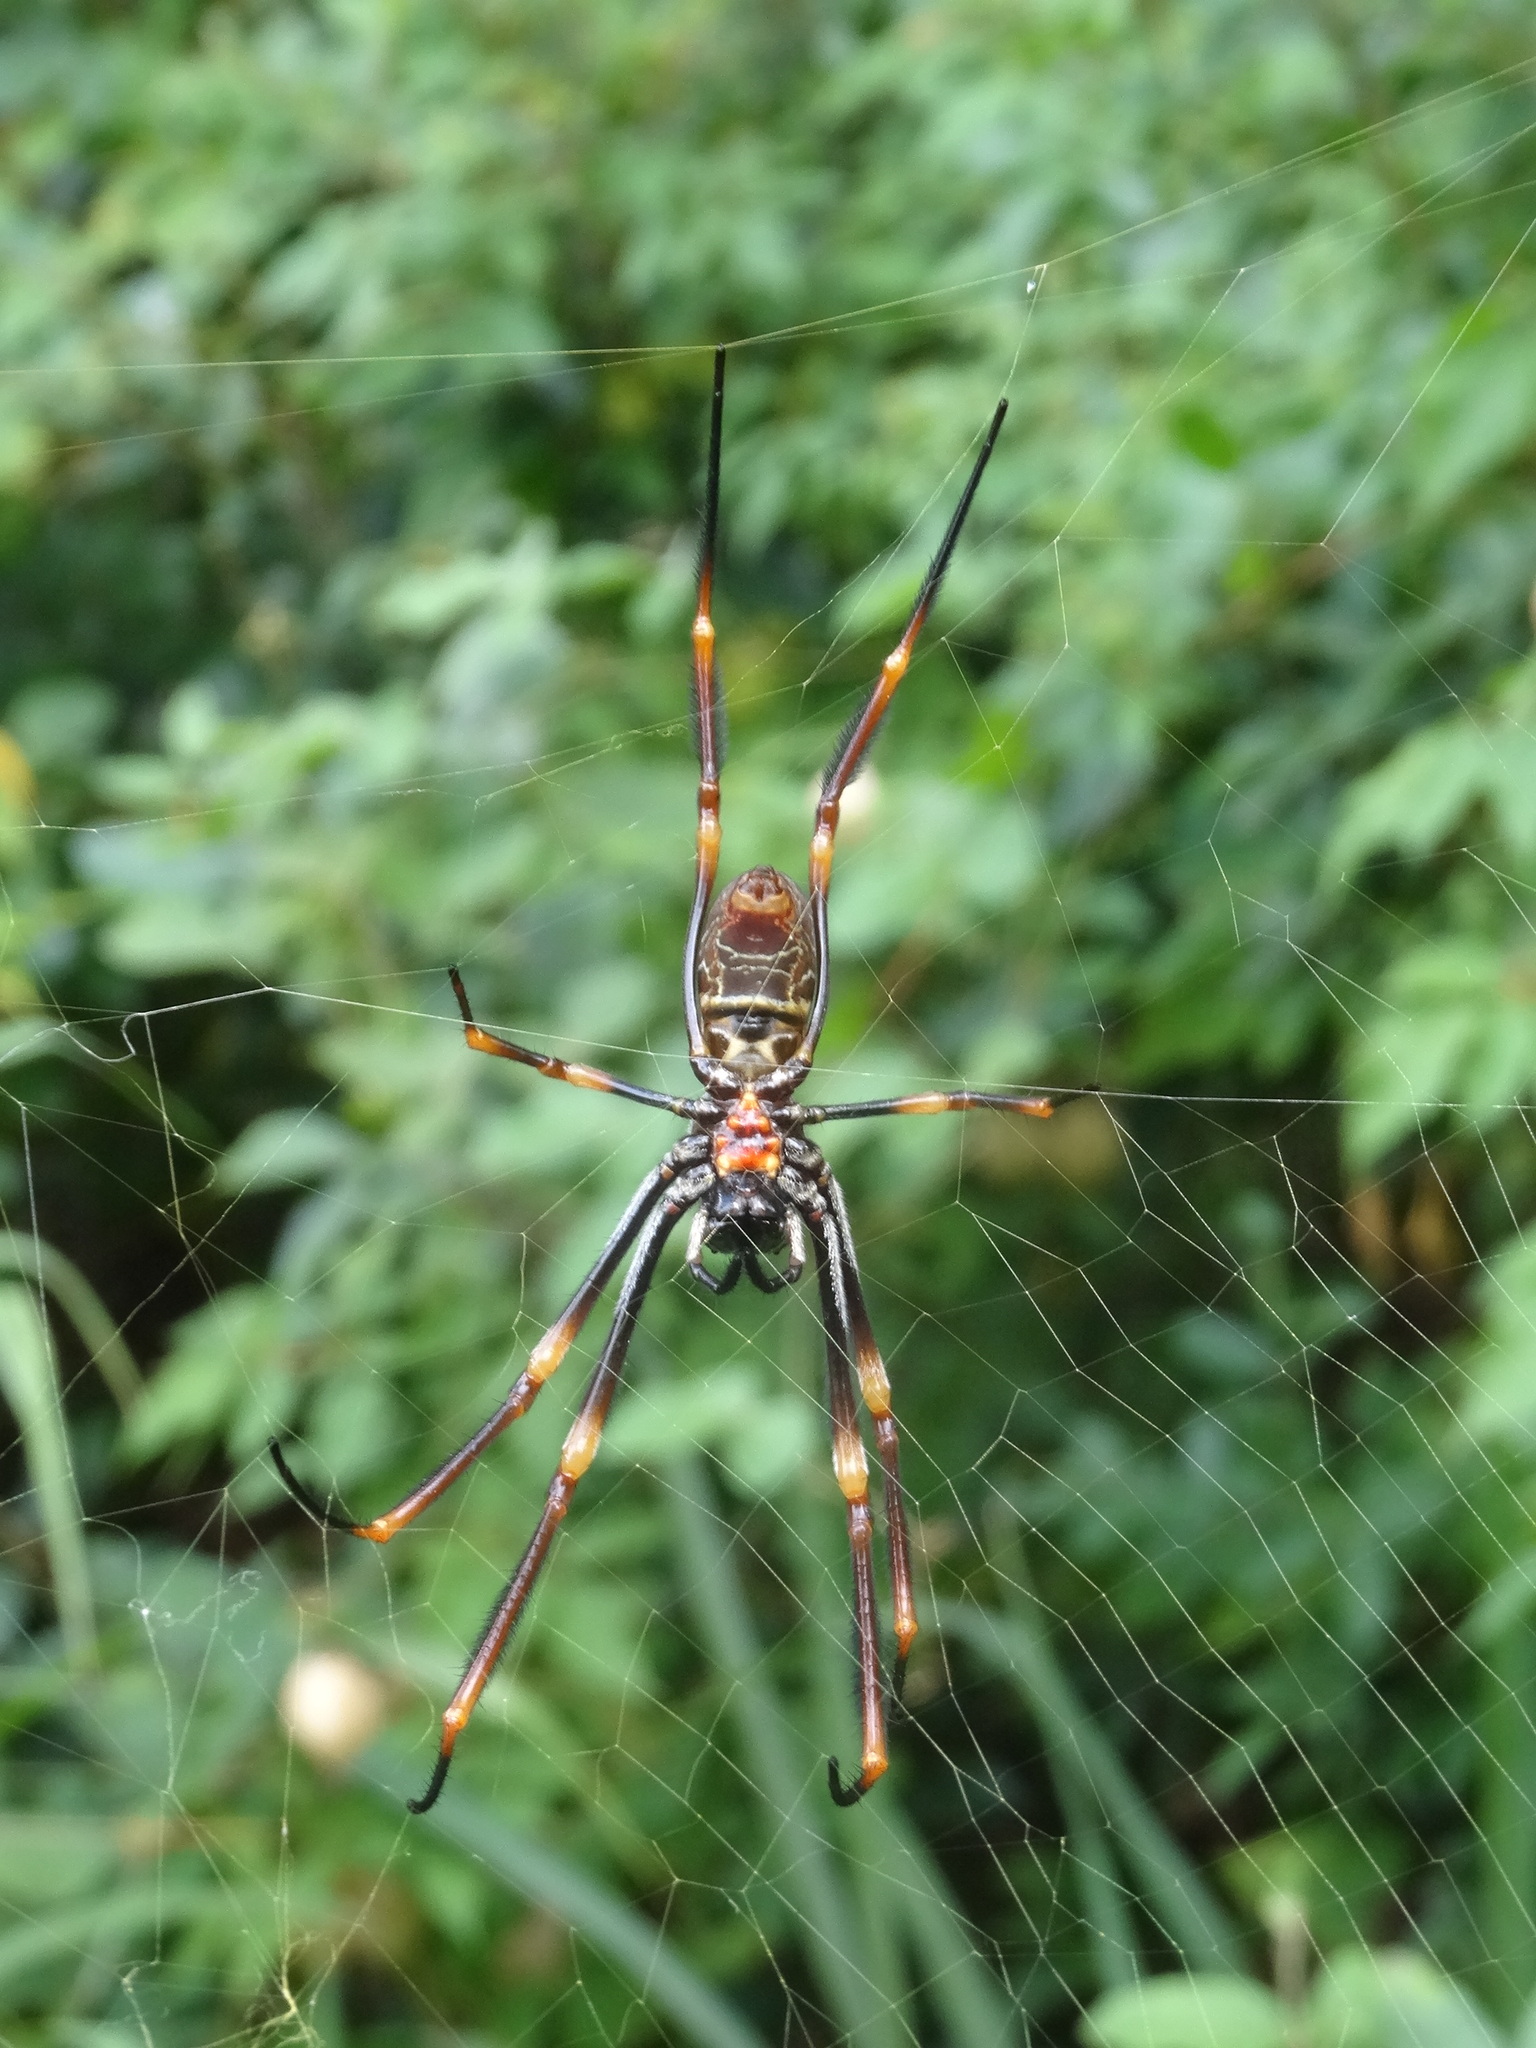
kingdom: Animalia
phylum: Arthropoda
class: Arachnida
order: Araneae
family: Araneidae
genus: Trichonephila
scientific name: Trichonephila plumipes
